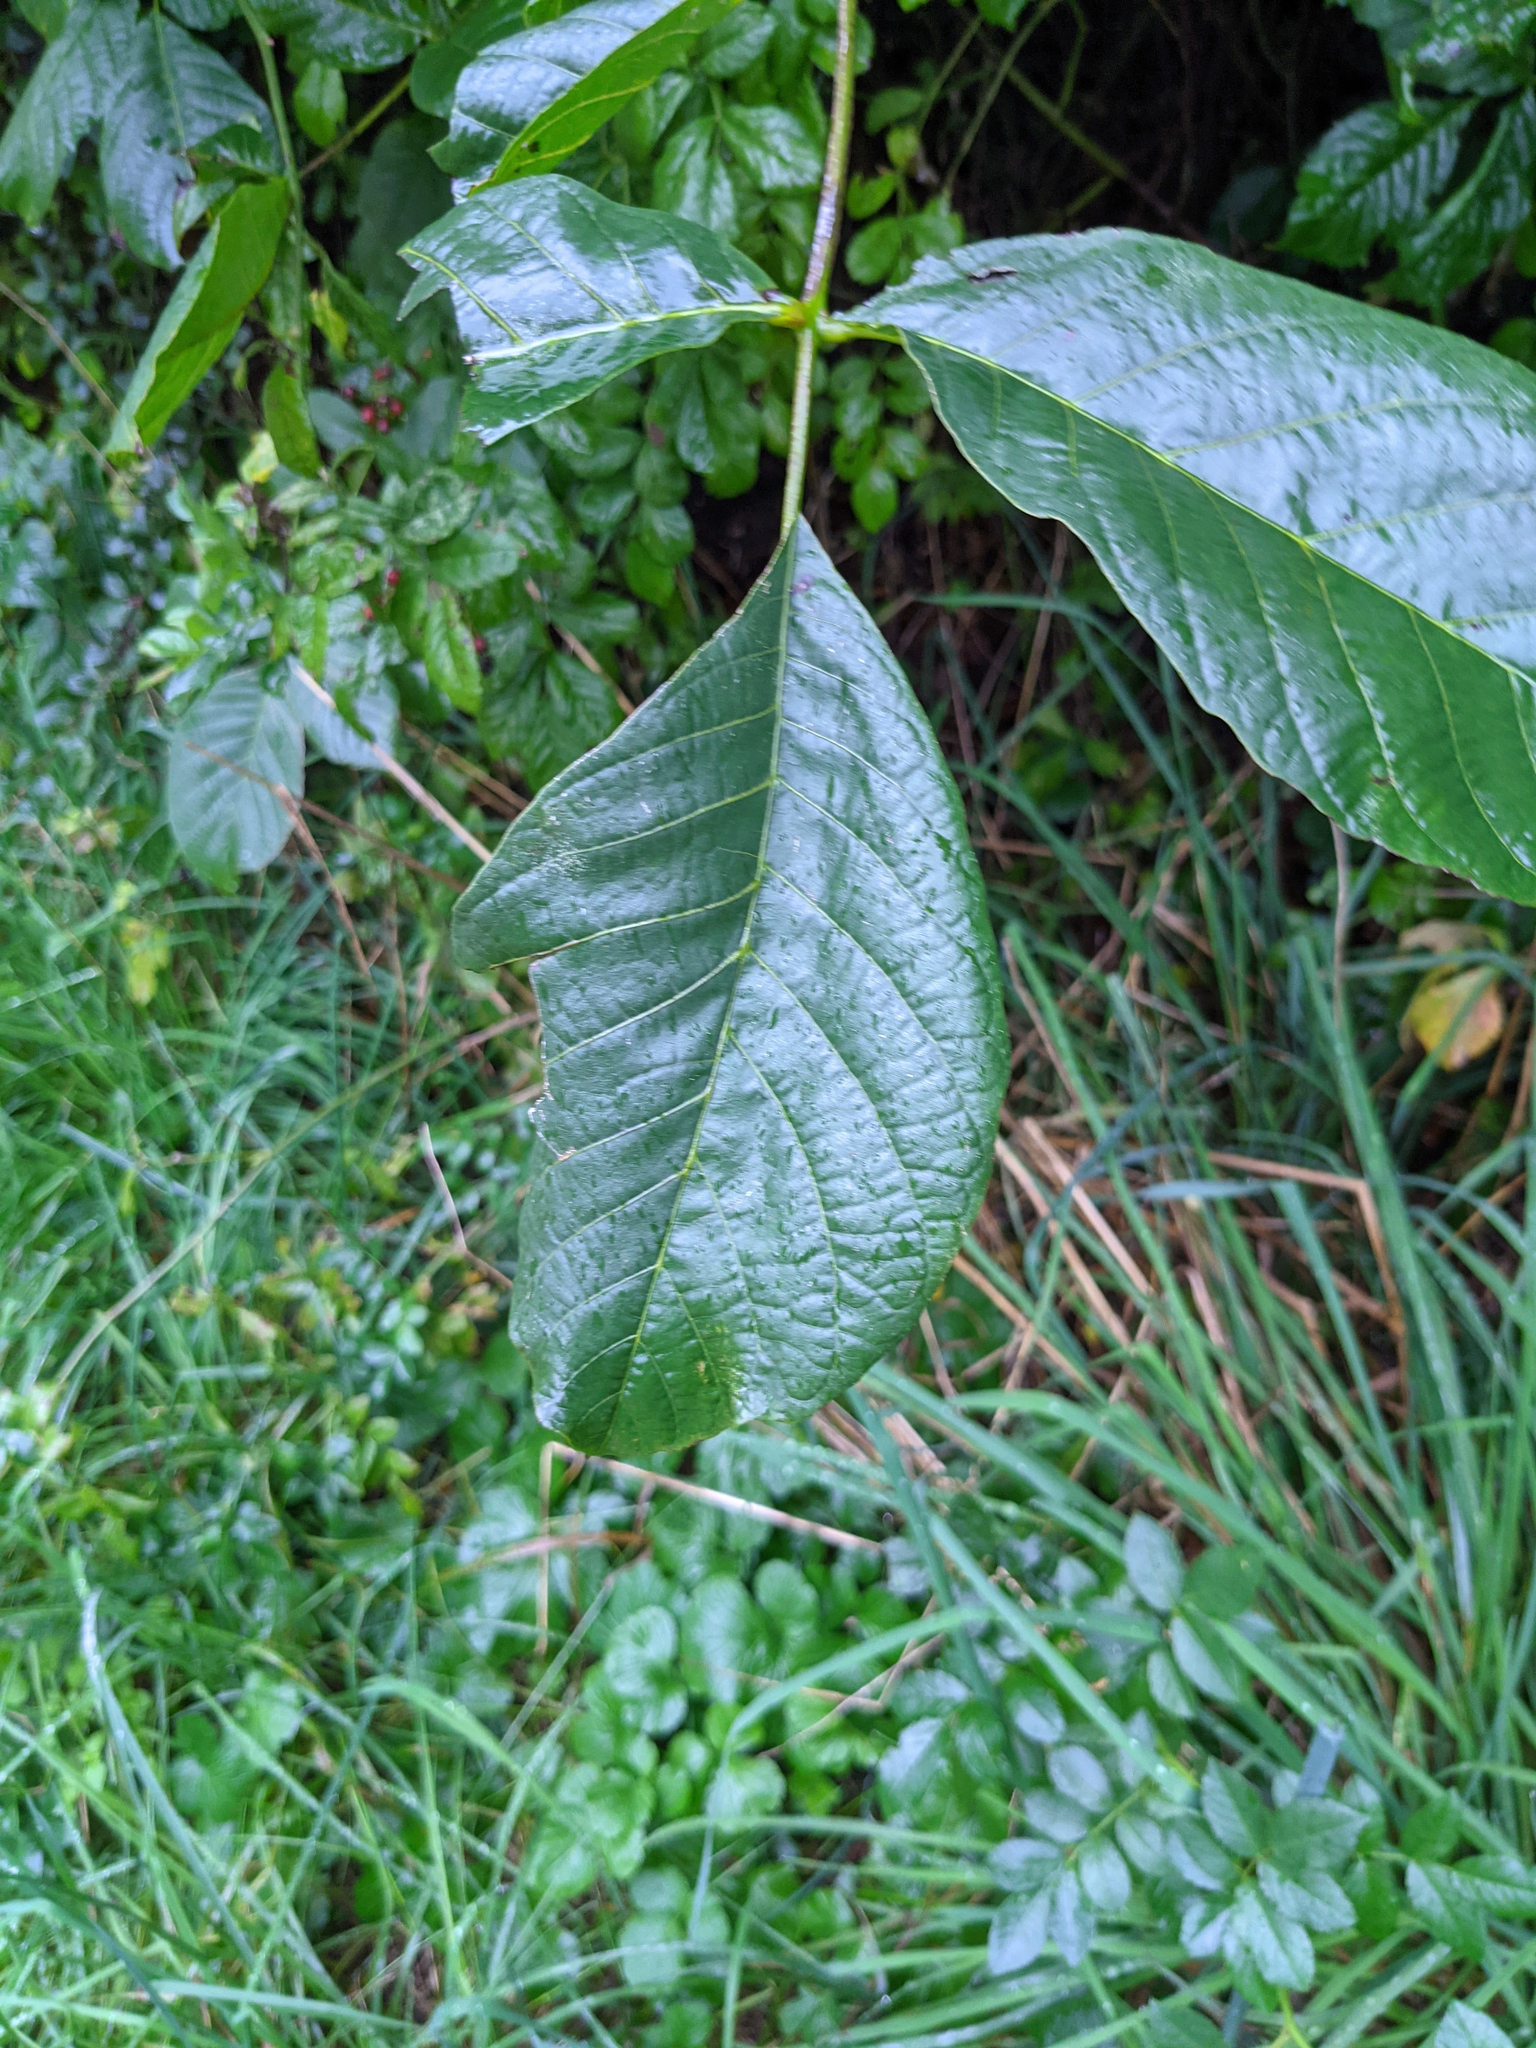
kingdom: Plantae
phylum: Tracheophyta
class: Magnoliopsida
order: Fagales
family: Juglandaceae
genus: Juglans
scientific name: Juglans regia
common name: Walnut
